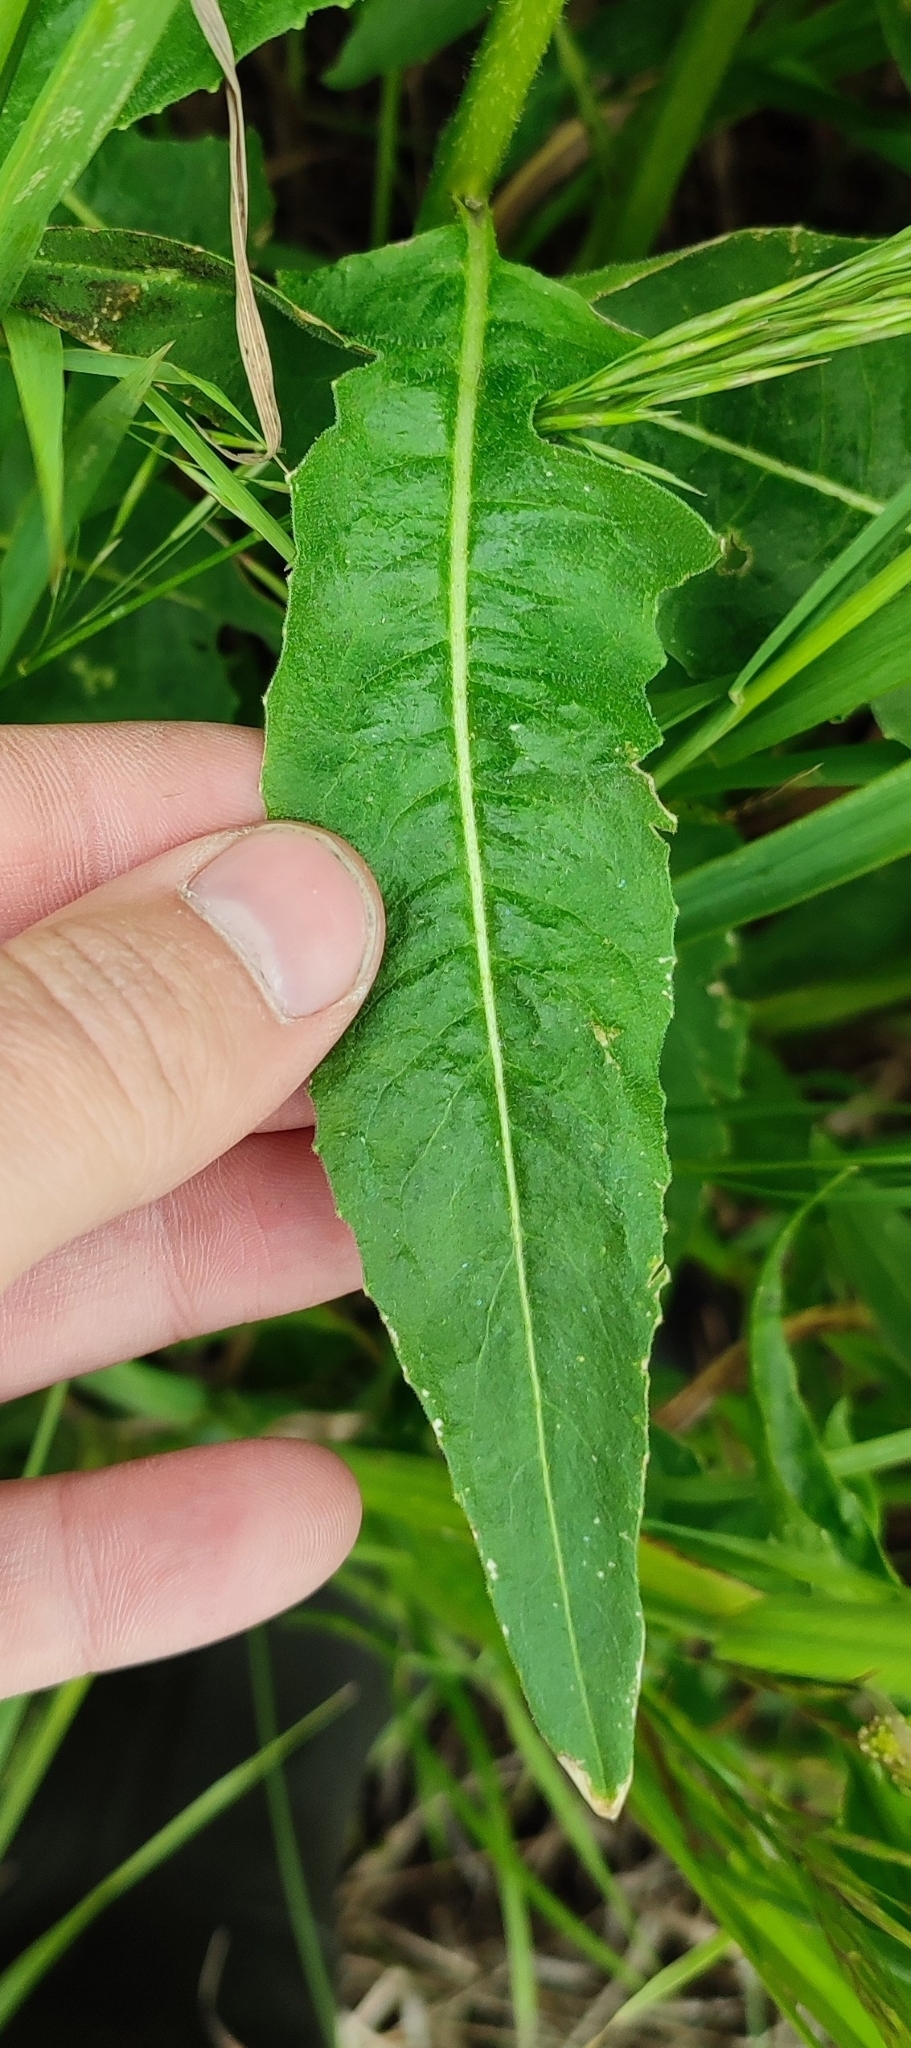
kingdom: Plantae
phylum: Tracheophyta
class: Magnoliopsida
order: Brassicales
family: Brassicaceae
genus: Bunias
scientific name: Bunias orientalis
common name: Warty-cabbage
